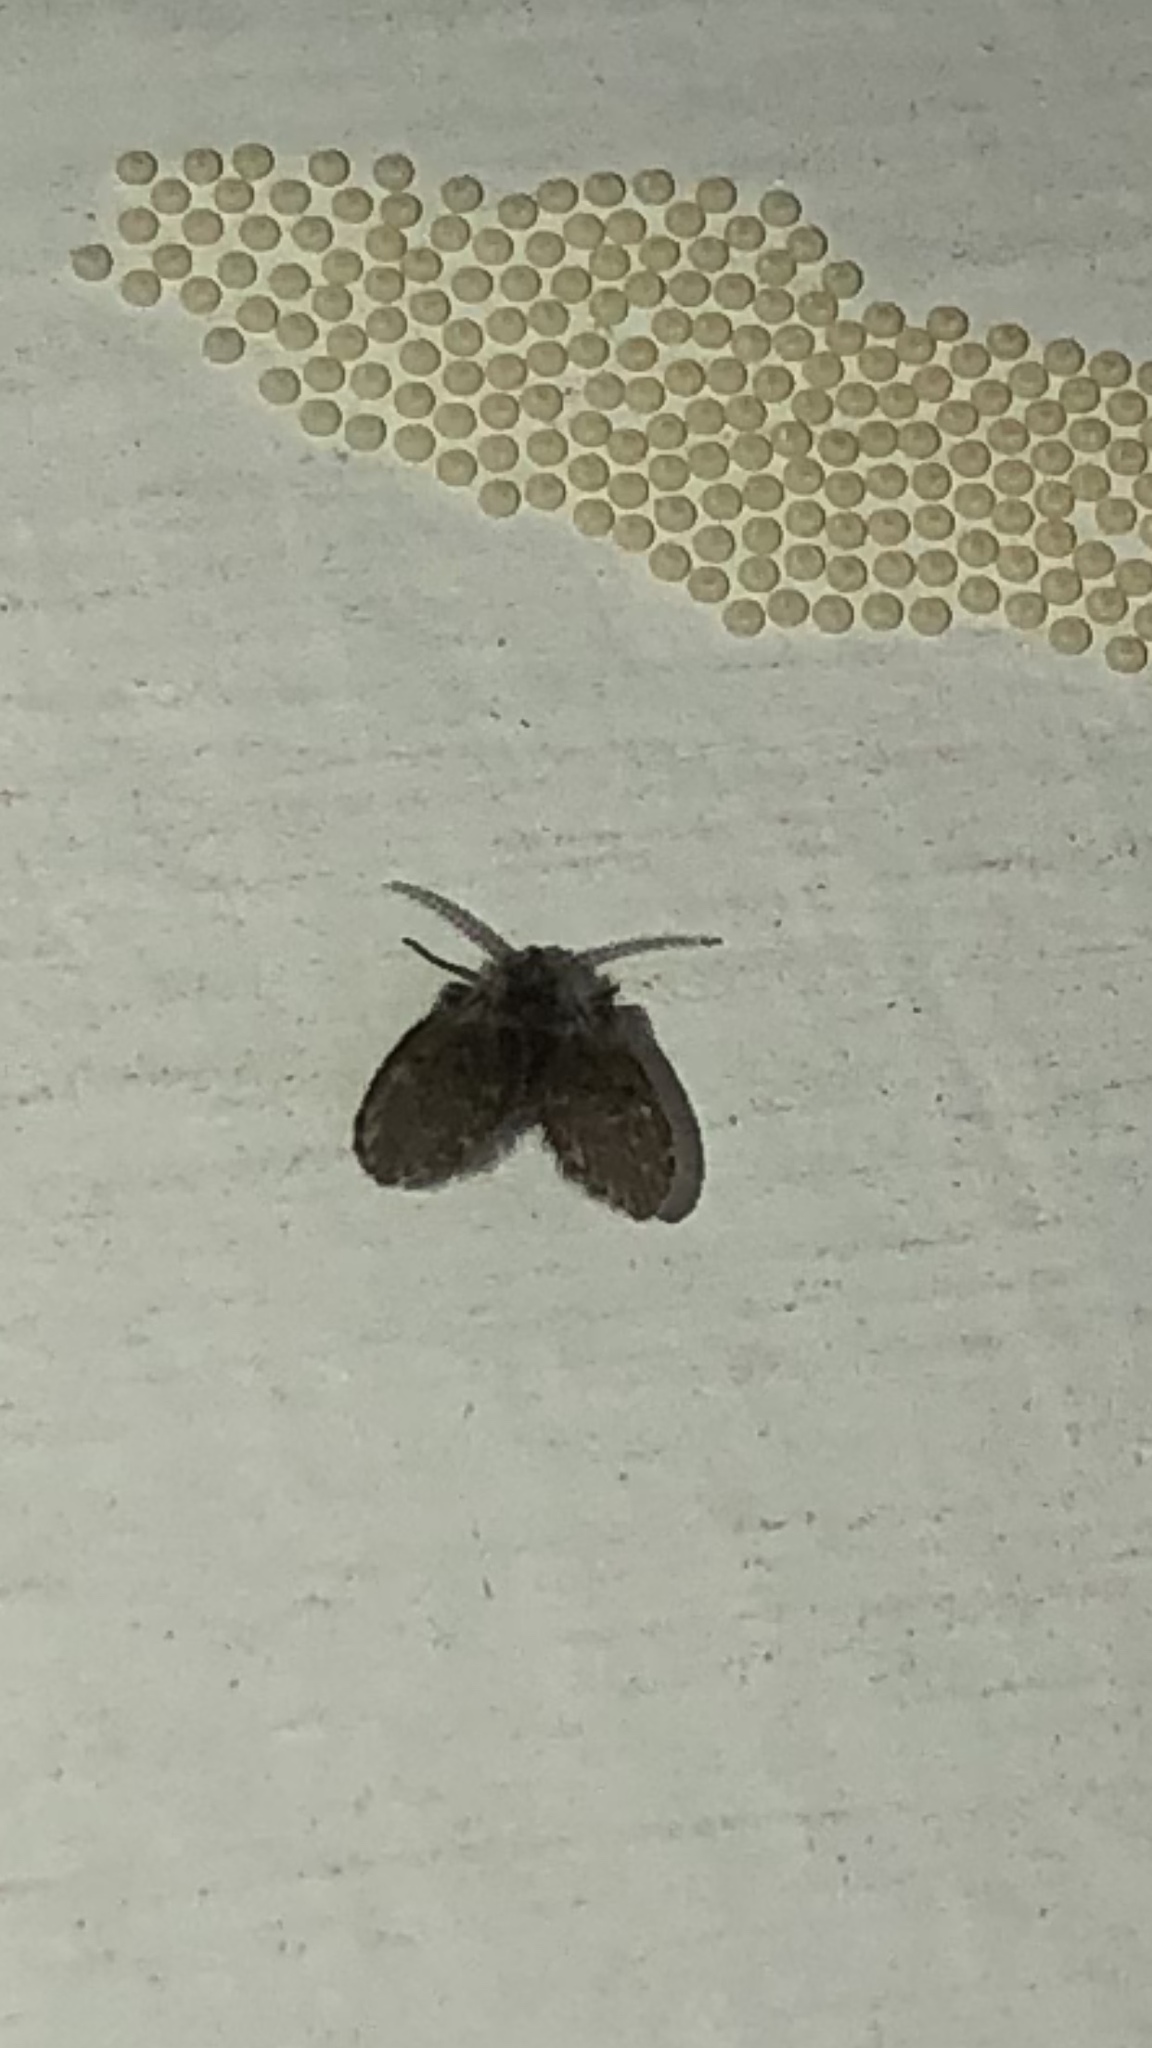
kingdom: Animalia
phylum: Arthropoda
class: Insecta
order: Diptera
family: Psychodidae
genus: Clogmia
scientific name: Clogmia albipunctatus
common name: White-spotted moth fly
